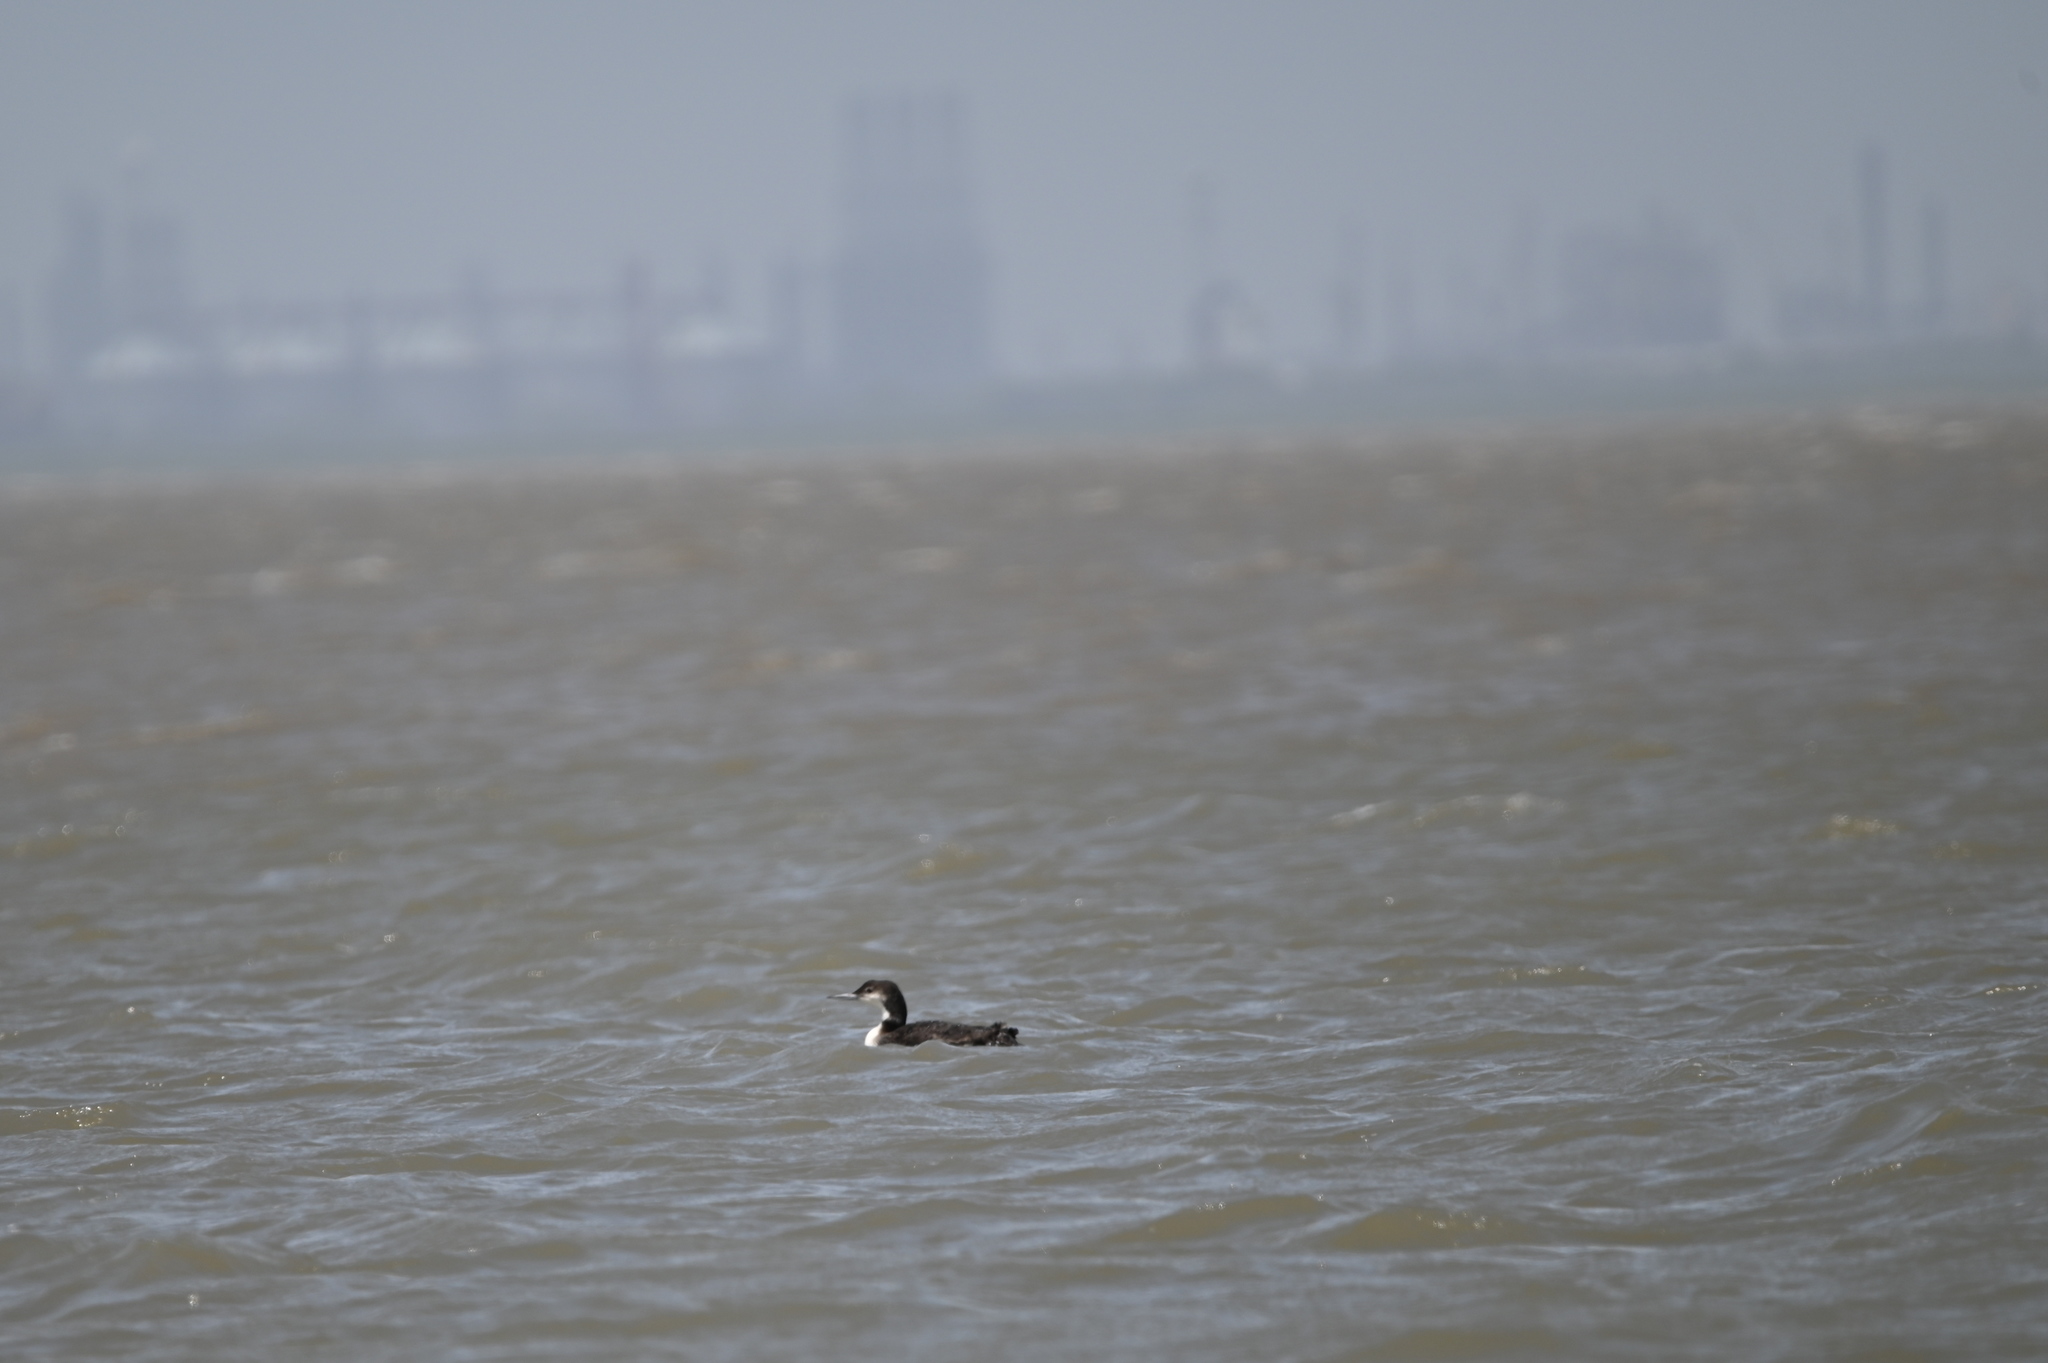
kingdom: Animalia
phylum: Chordata
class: Aves
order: Gaviiformes
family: Gaviidae
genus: Gavia
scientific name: Gavia immer
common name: Common loon
